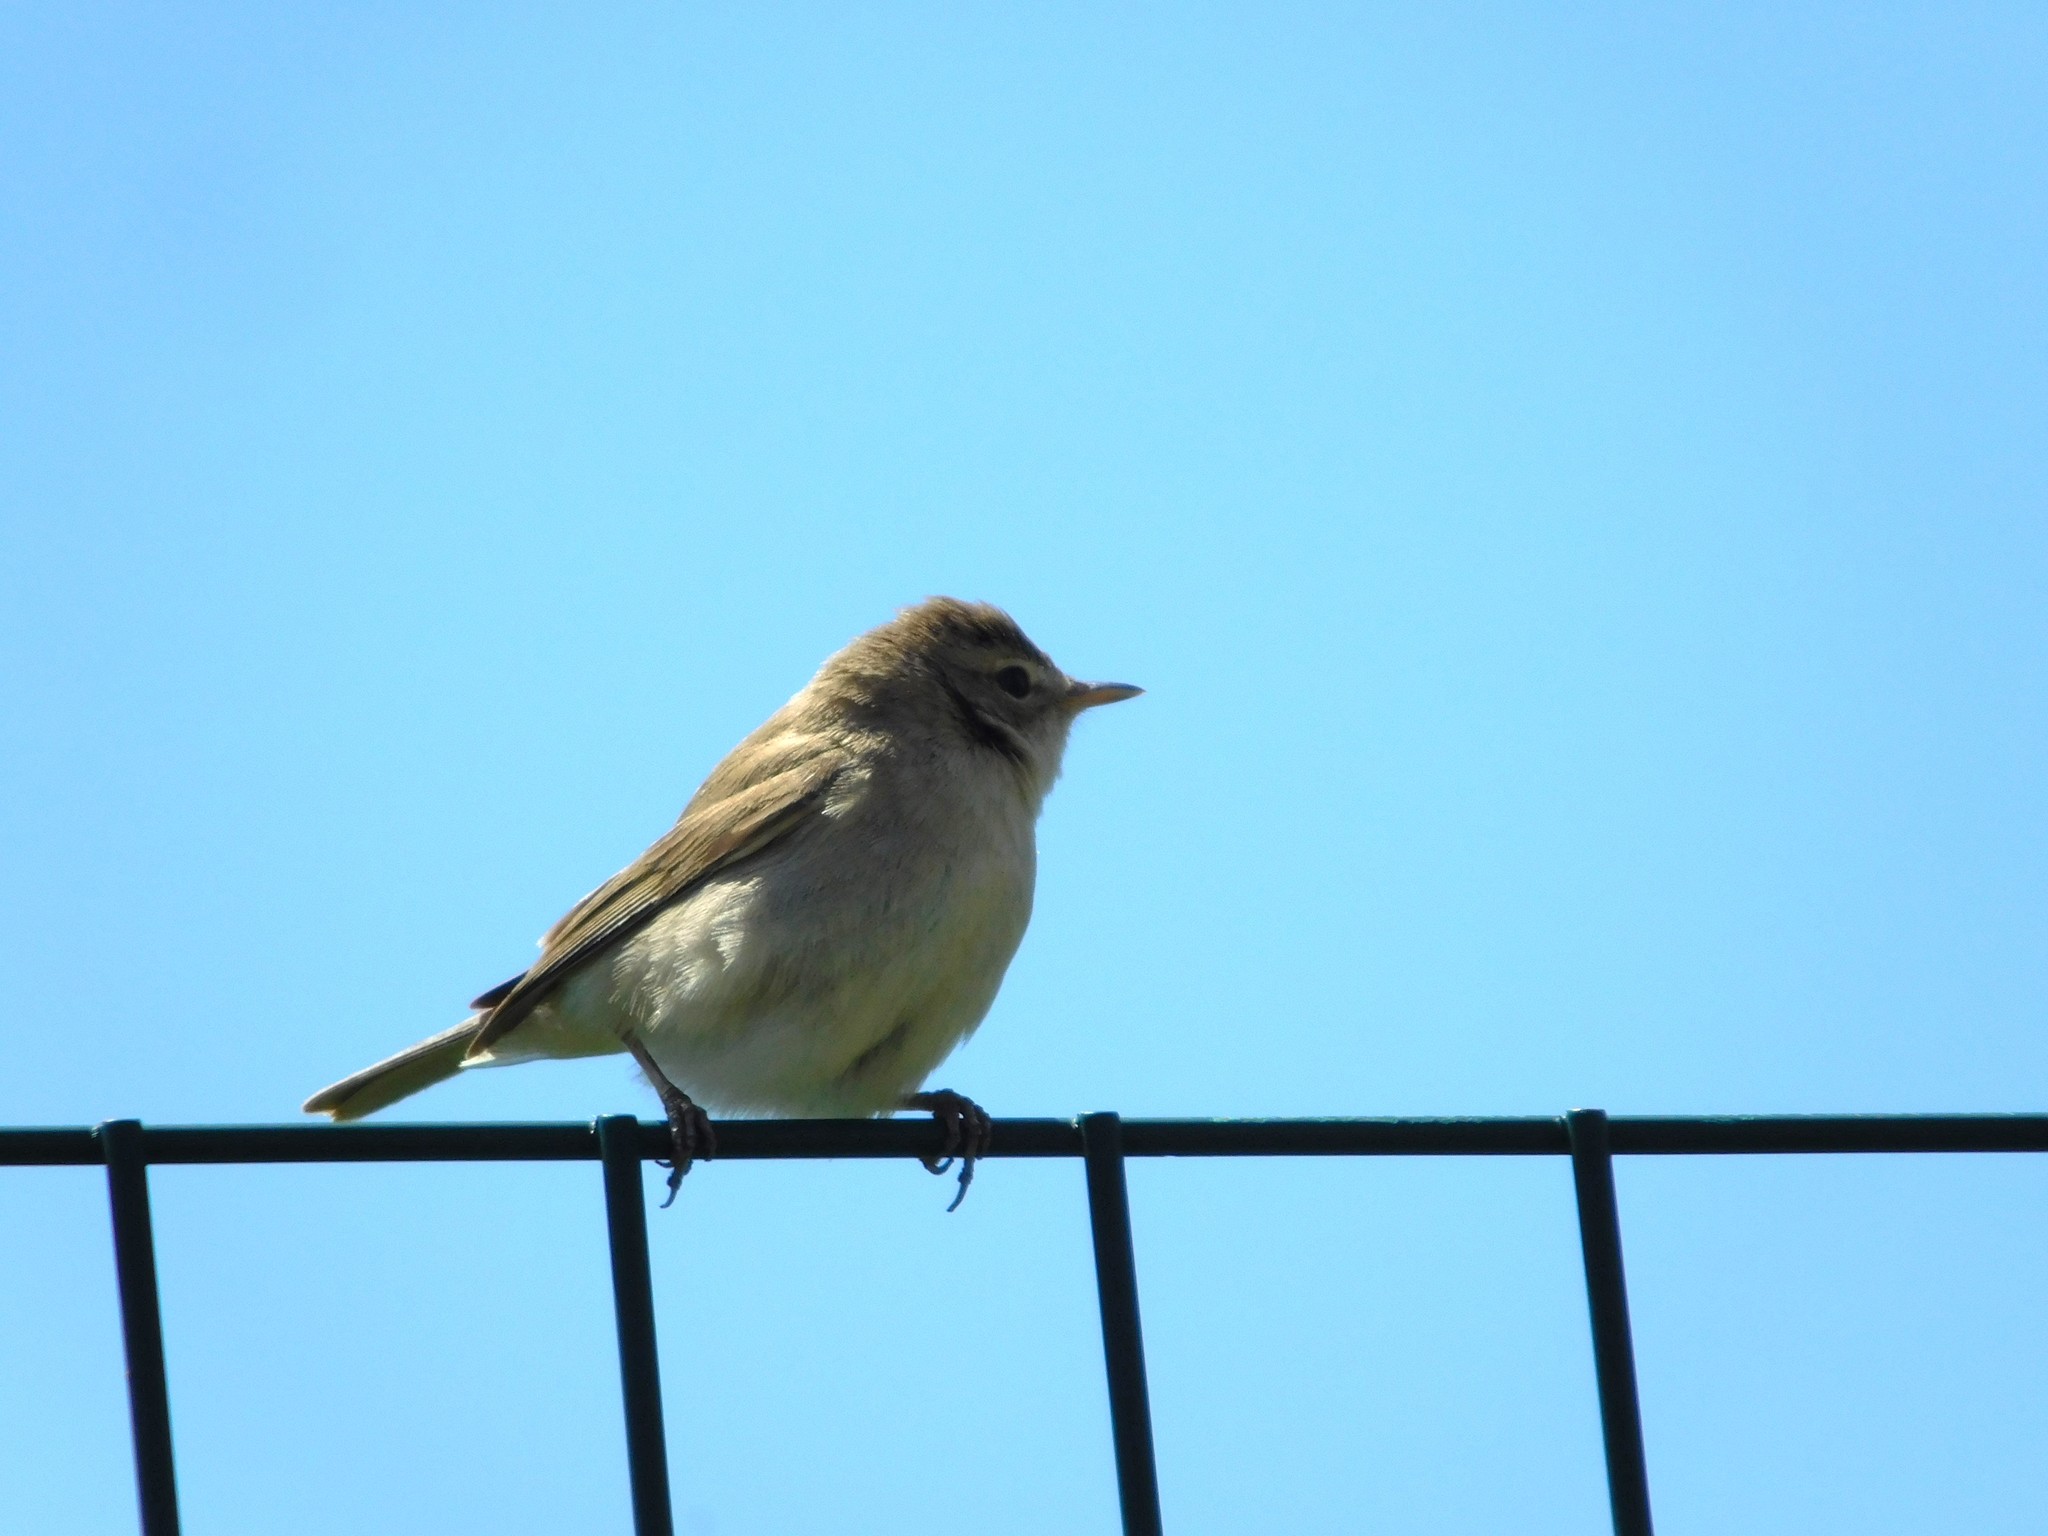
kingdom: Animalia
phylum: Chordata
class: Aves
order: Passeriformes
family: Acrocephalidae
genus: Iduna
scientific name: Iduna caligata
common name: Booted warbler
